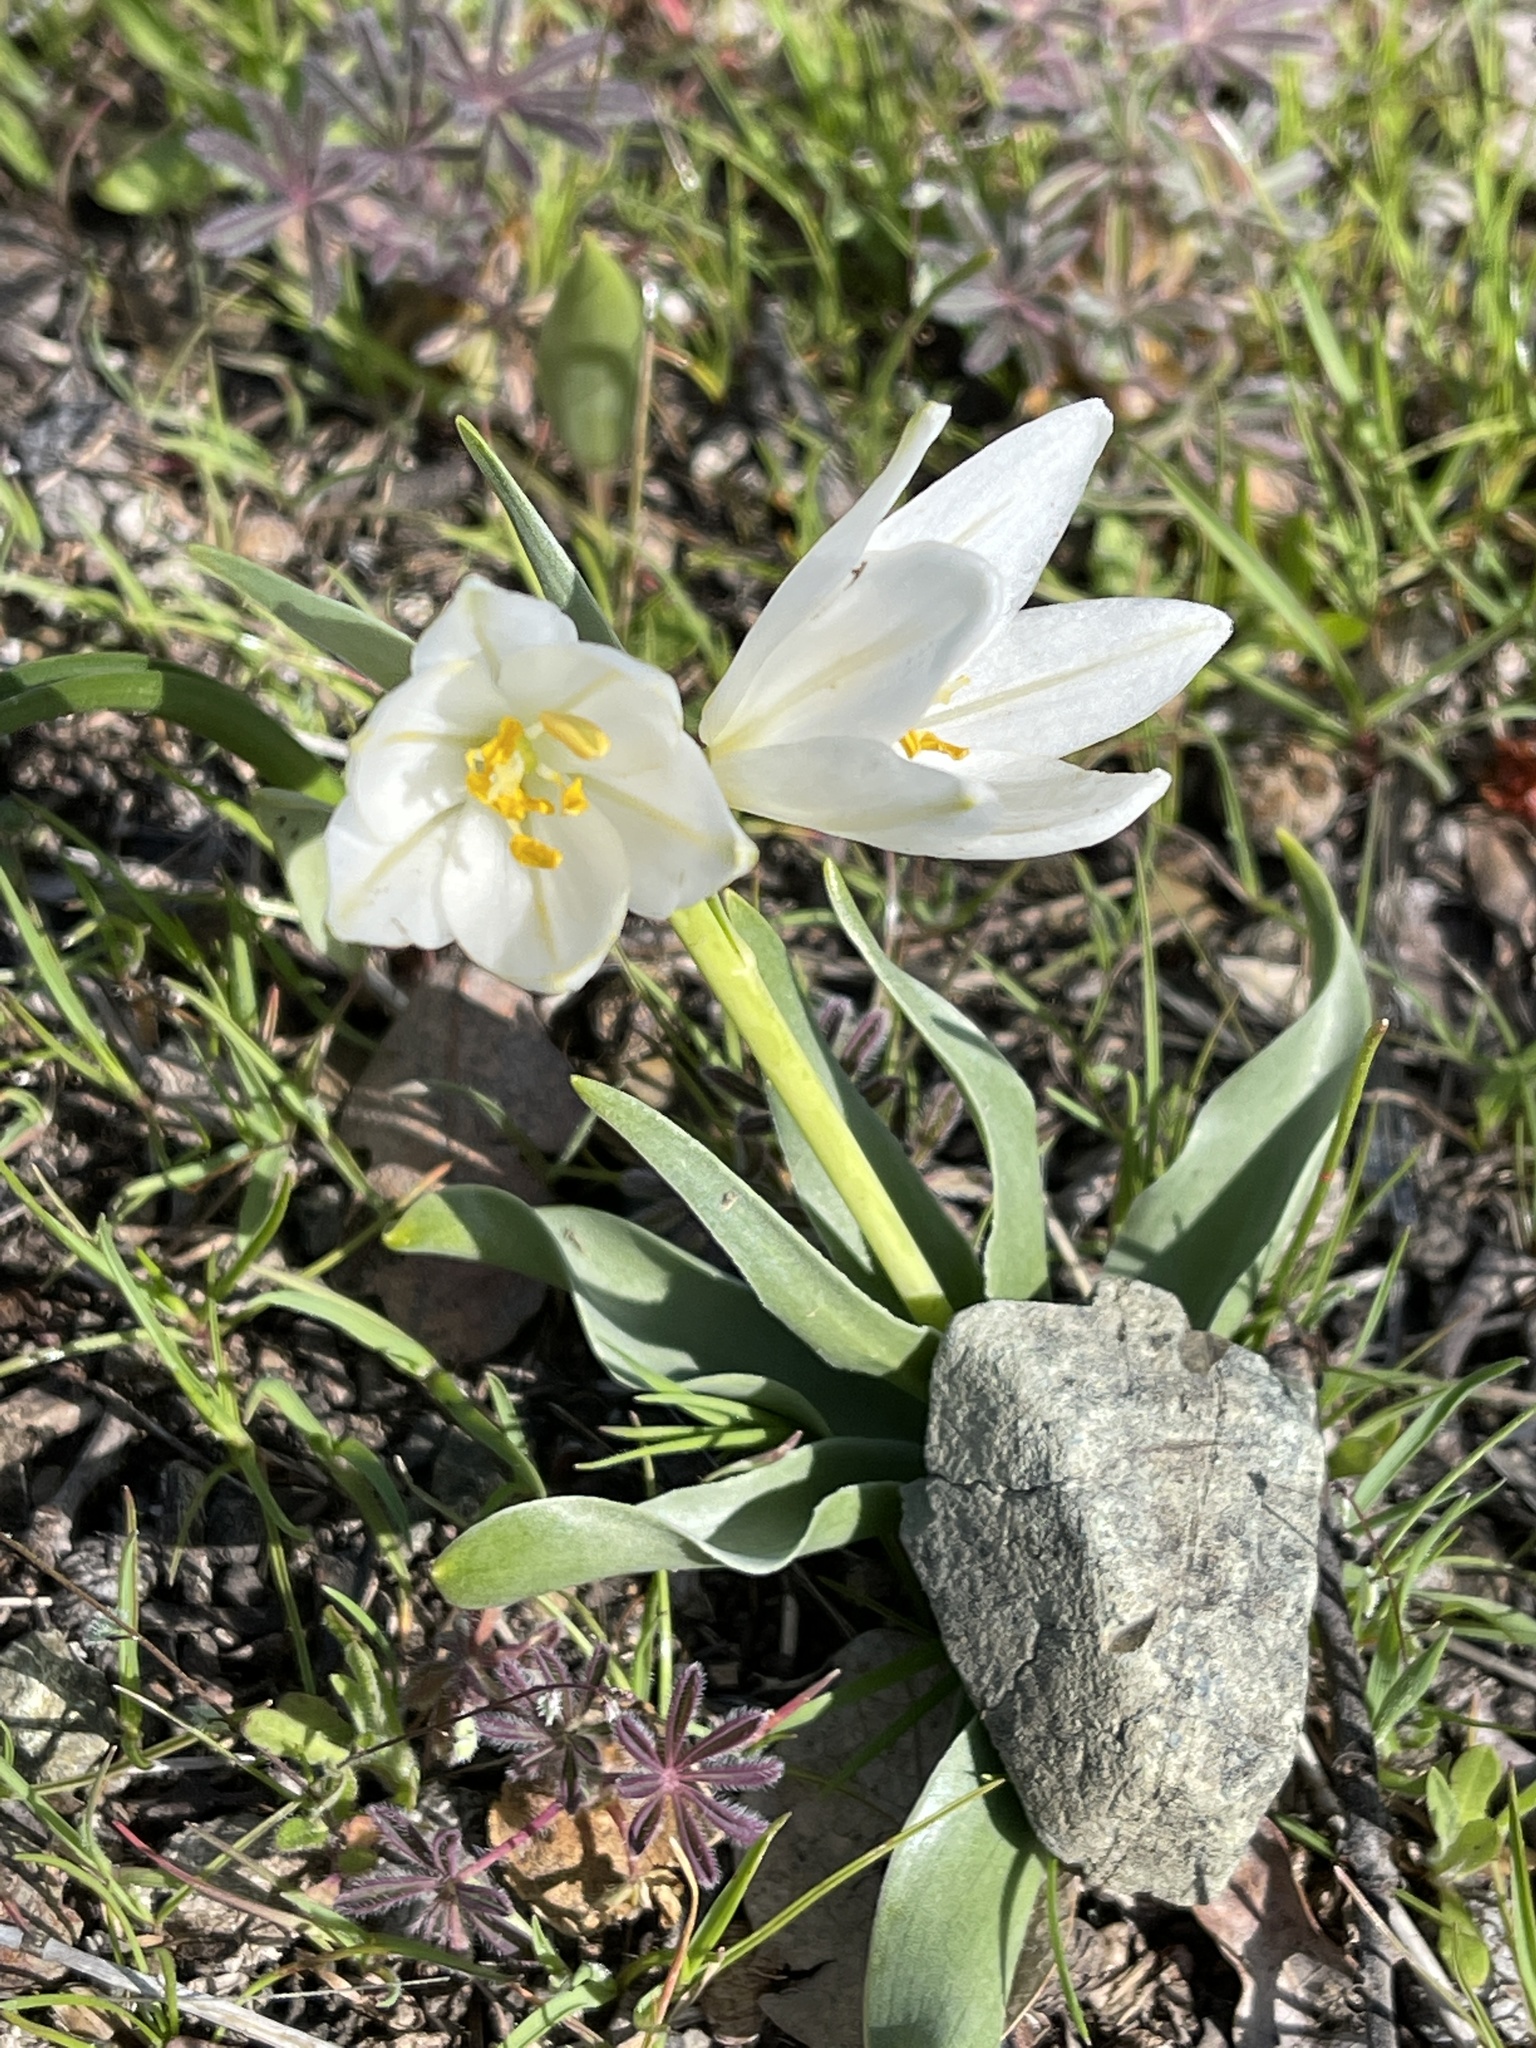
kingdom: Plantae
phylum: Tracheophyta
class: Liliopsida
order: Liliales
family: Liliaceae
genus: Fritillaria
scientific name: Fritillaria pluriflora
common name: Adobe-lily
